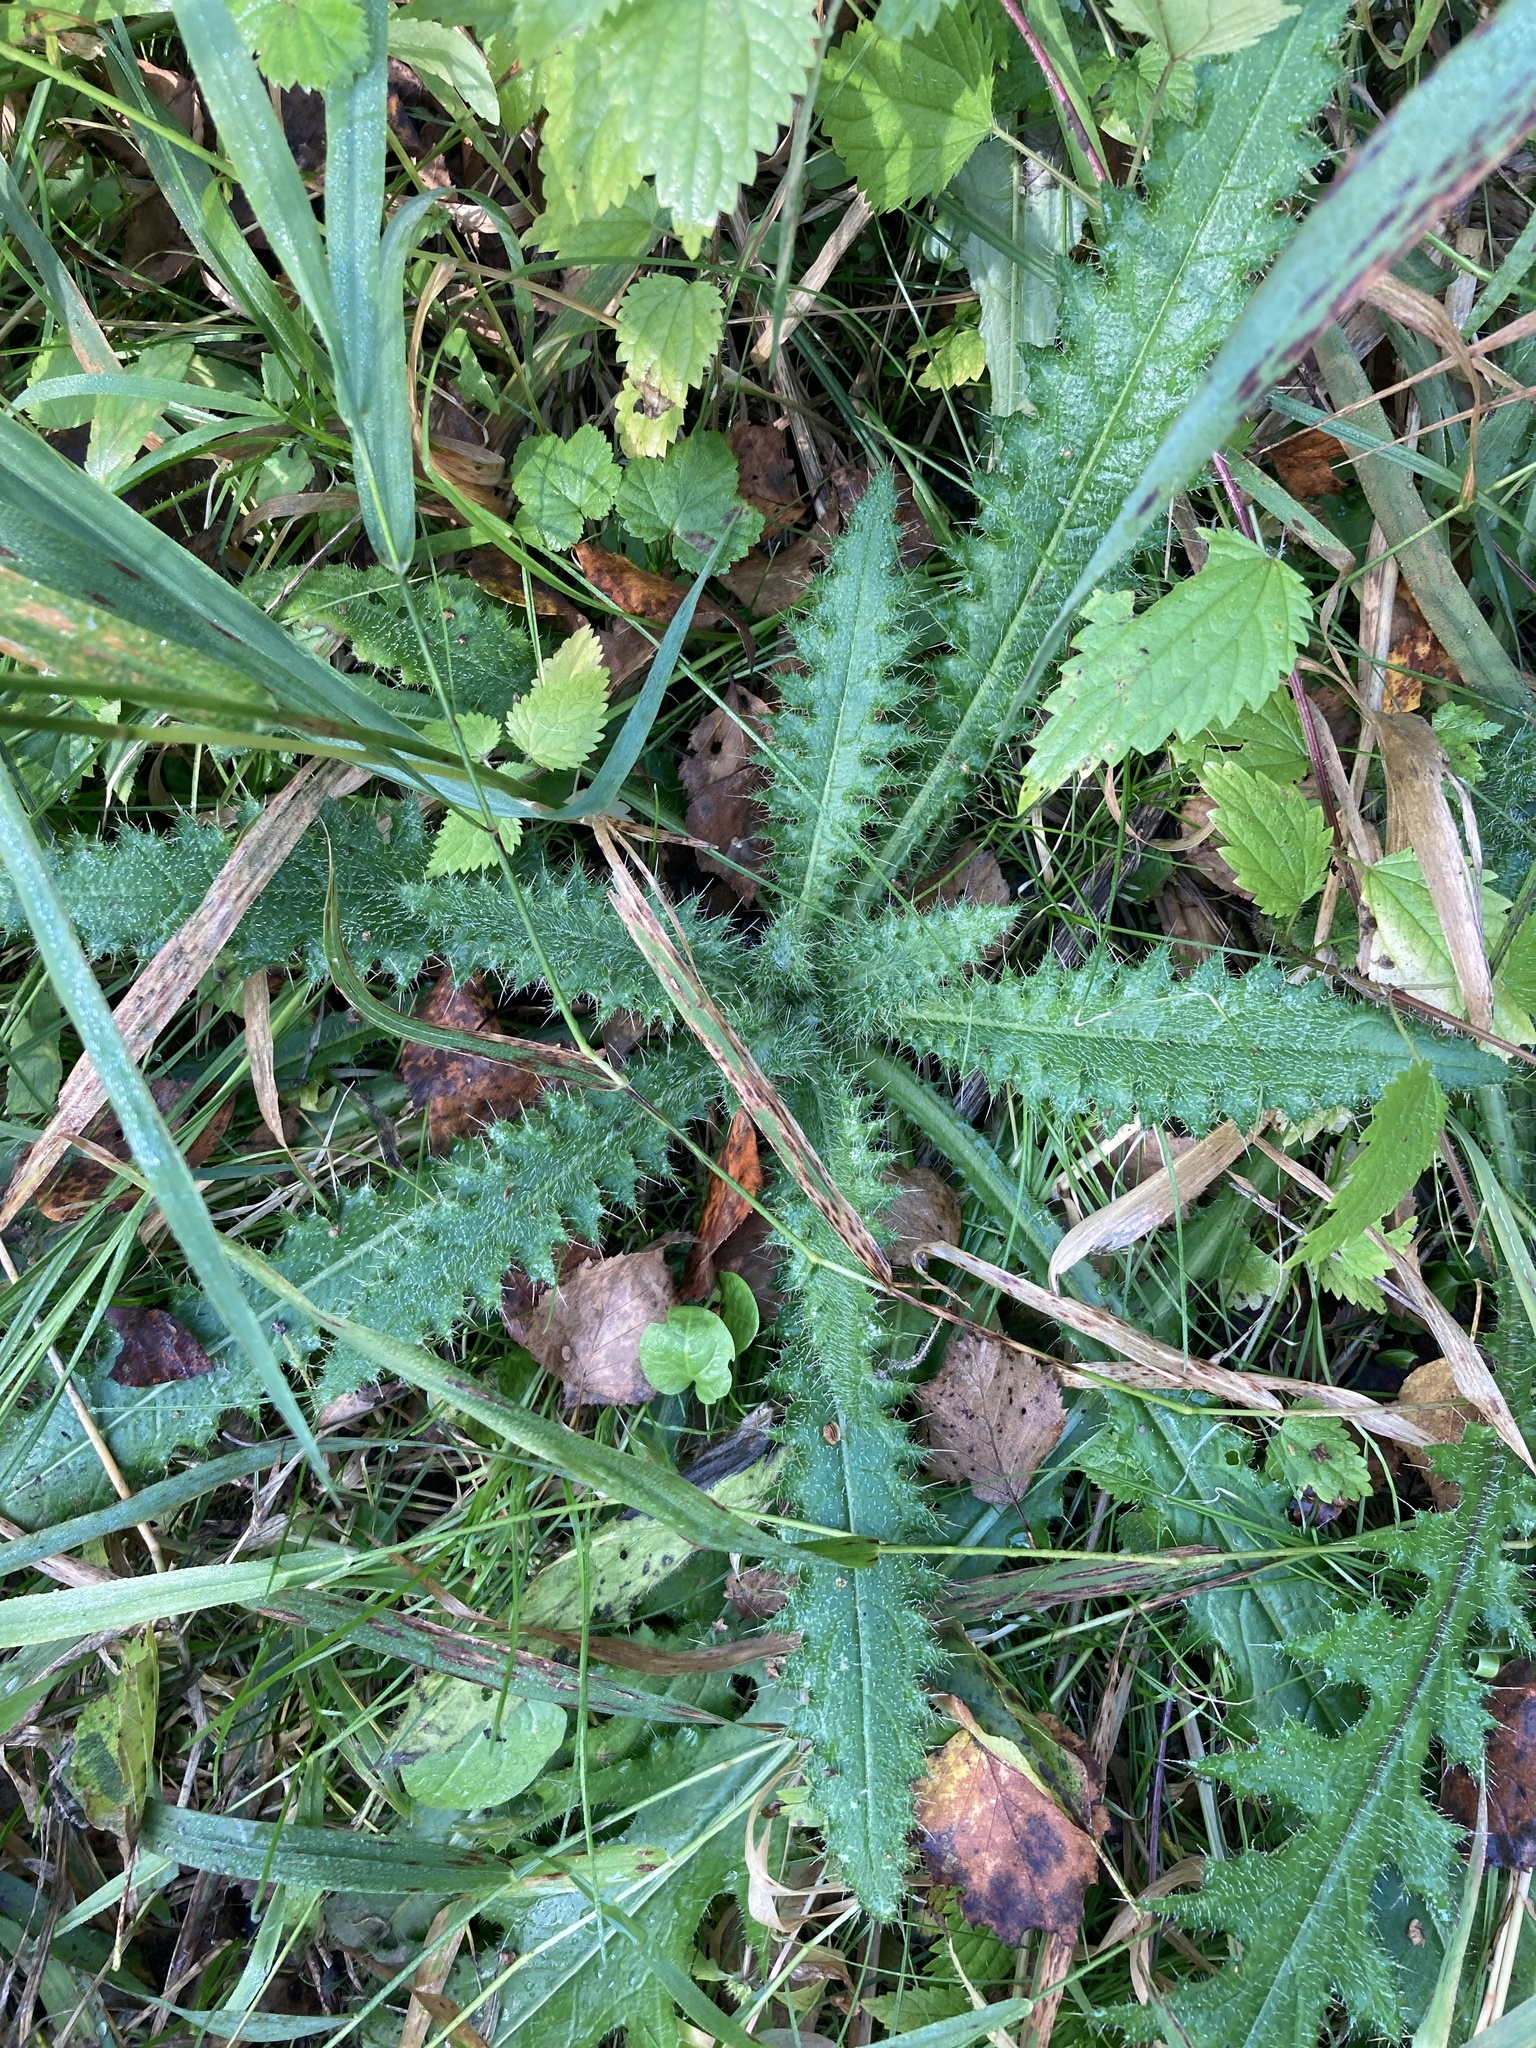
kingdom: Plantae
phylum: Tracheophyta
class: Magnoliopsida
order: Asterales
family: Asteraceae
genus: Cirsium
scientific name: Cirsium palustre
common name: Marsh thistle
